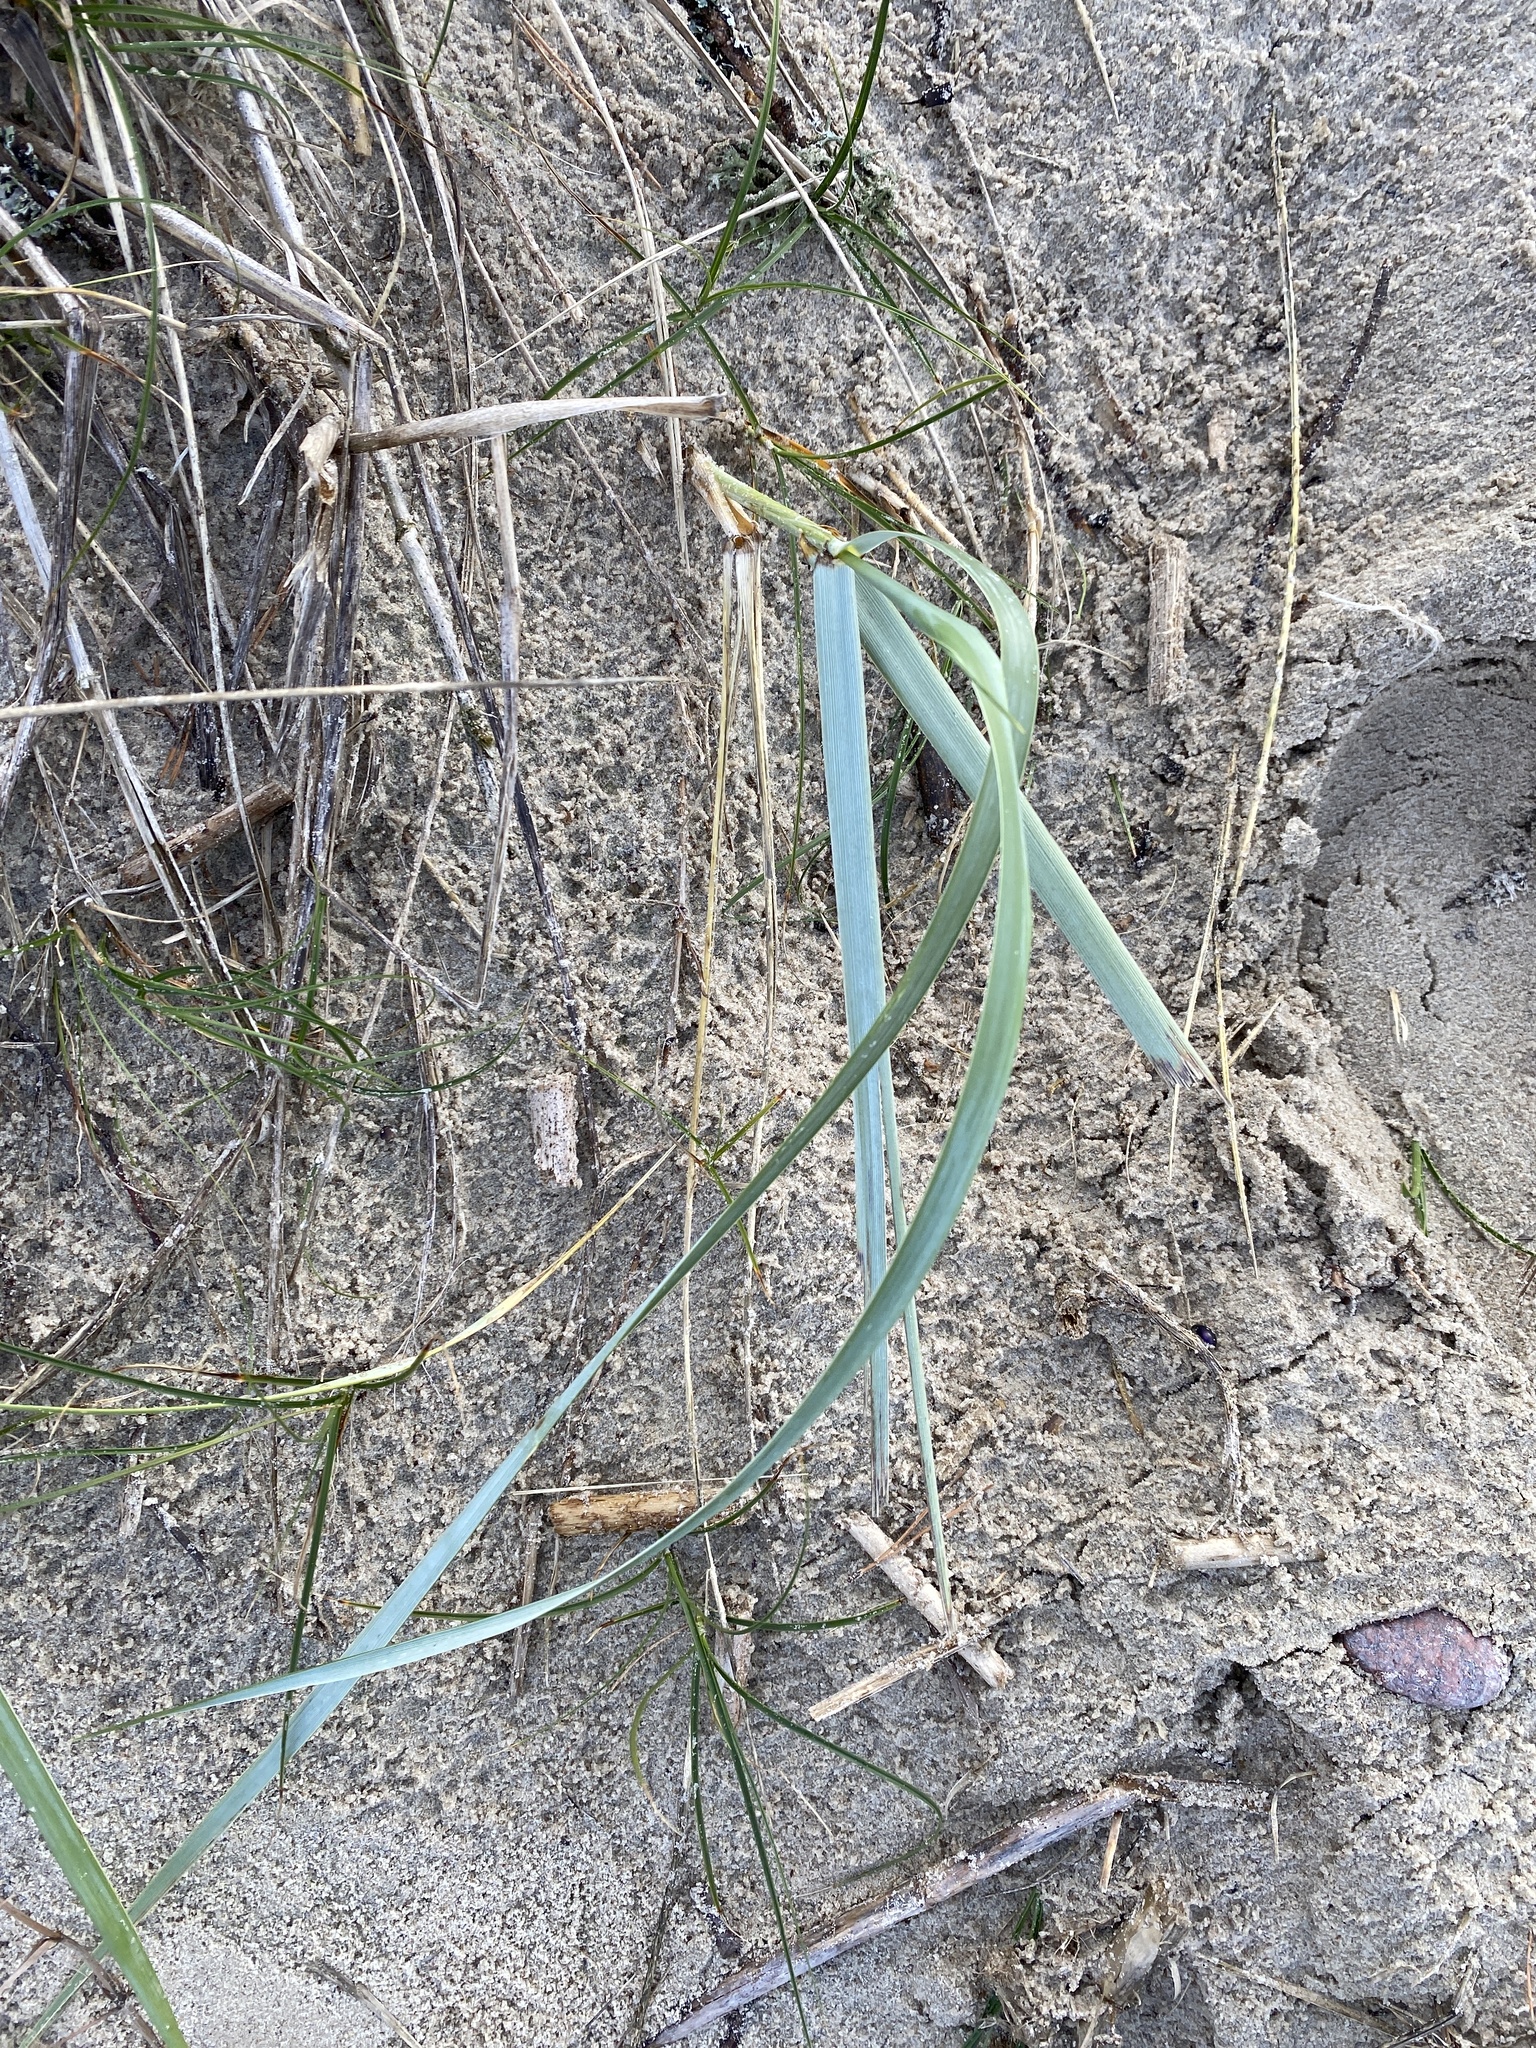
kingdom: Plantae
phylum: Tracheophyta
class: Liliopsida
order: Poales
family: Poaceae
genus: Leymus
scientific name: Leymus arenarius
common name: Lyme-grass
